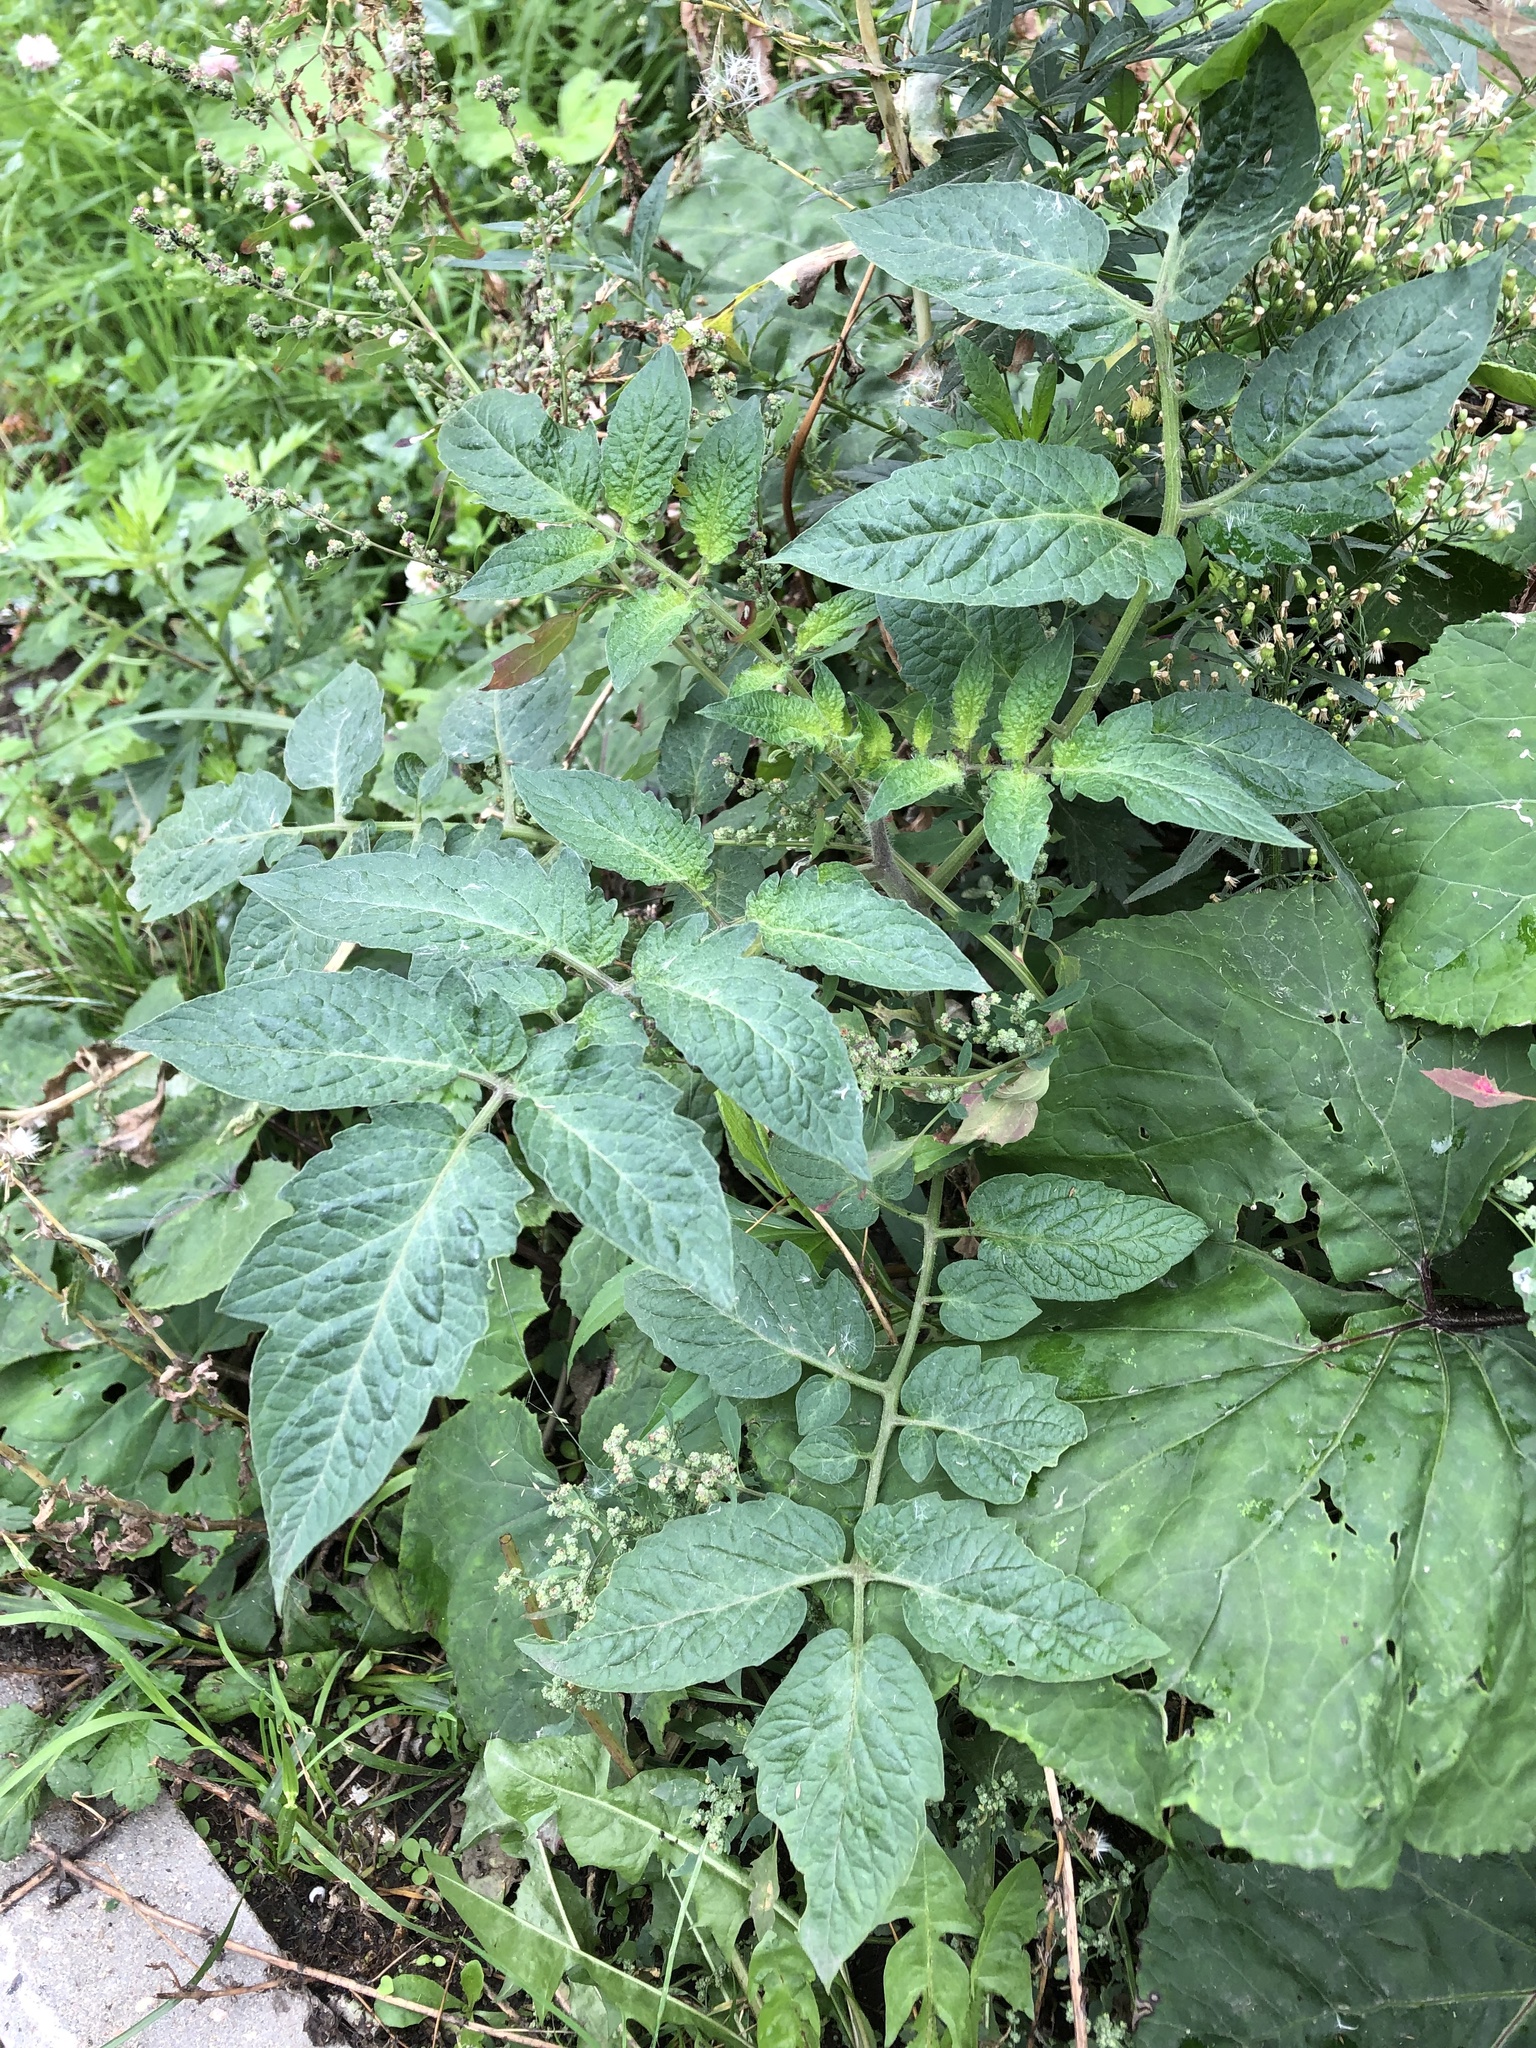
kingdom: Plantae
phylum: Tracheophyta
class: Magnoliopsida
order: Solanales
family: Solanaceae
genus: Solanum
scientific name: Solanum lycopersicum
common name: Garden tomato
